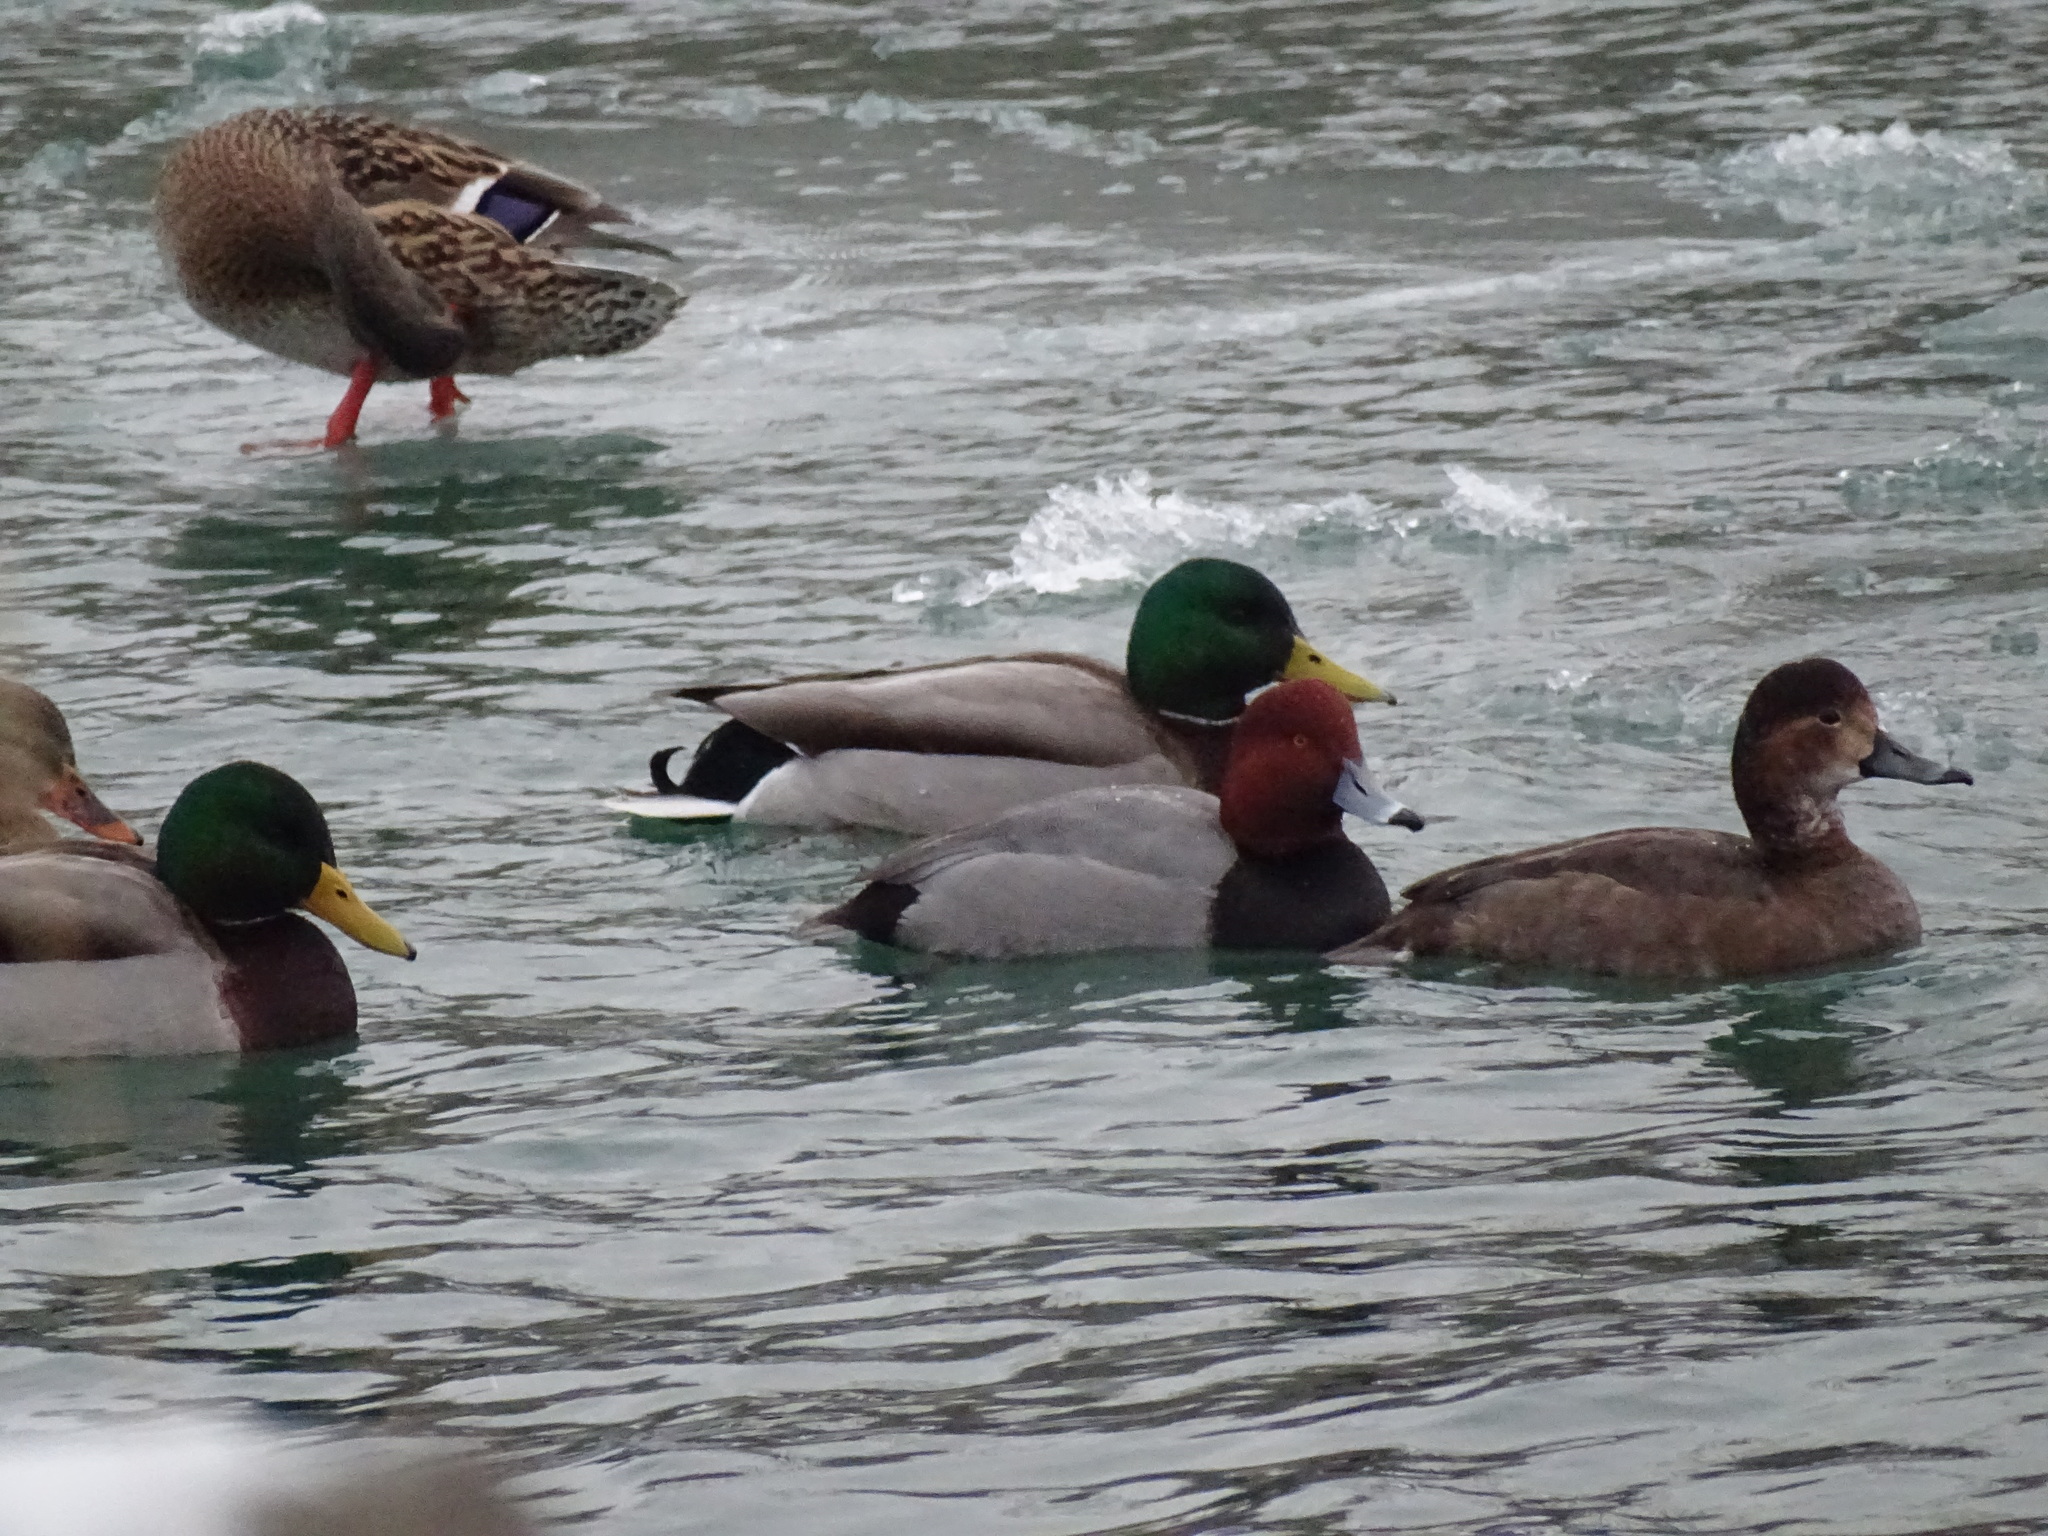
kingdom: Animalia
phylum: Chordata
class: Aves
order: Anseriformes
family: Anatidae
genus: Aythya
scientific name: Aythya americana
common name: Redhead
